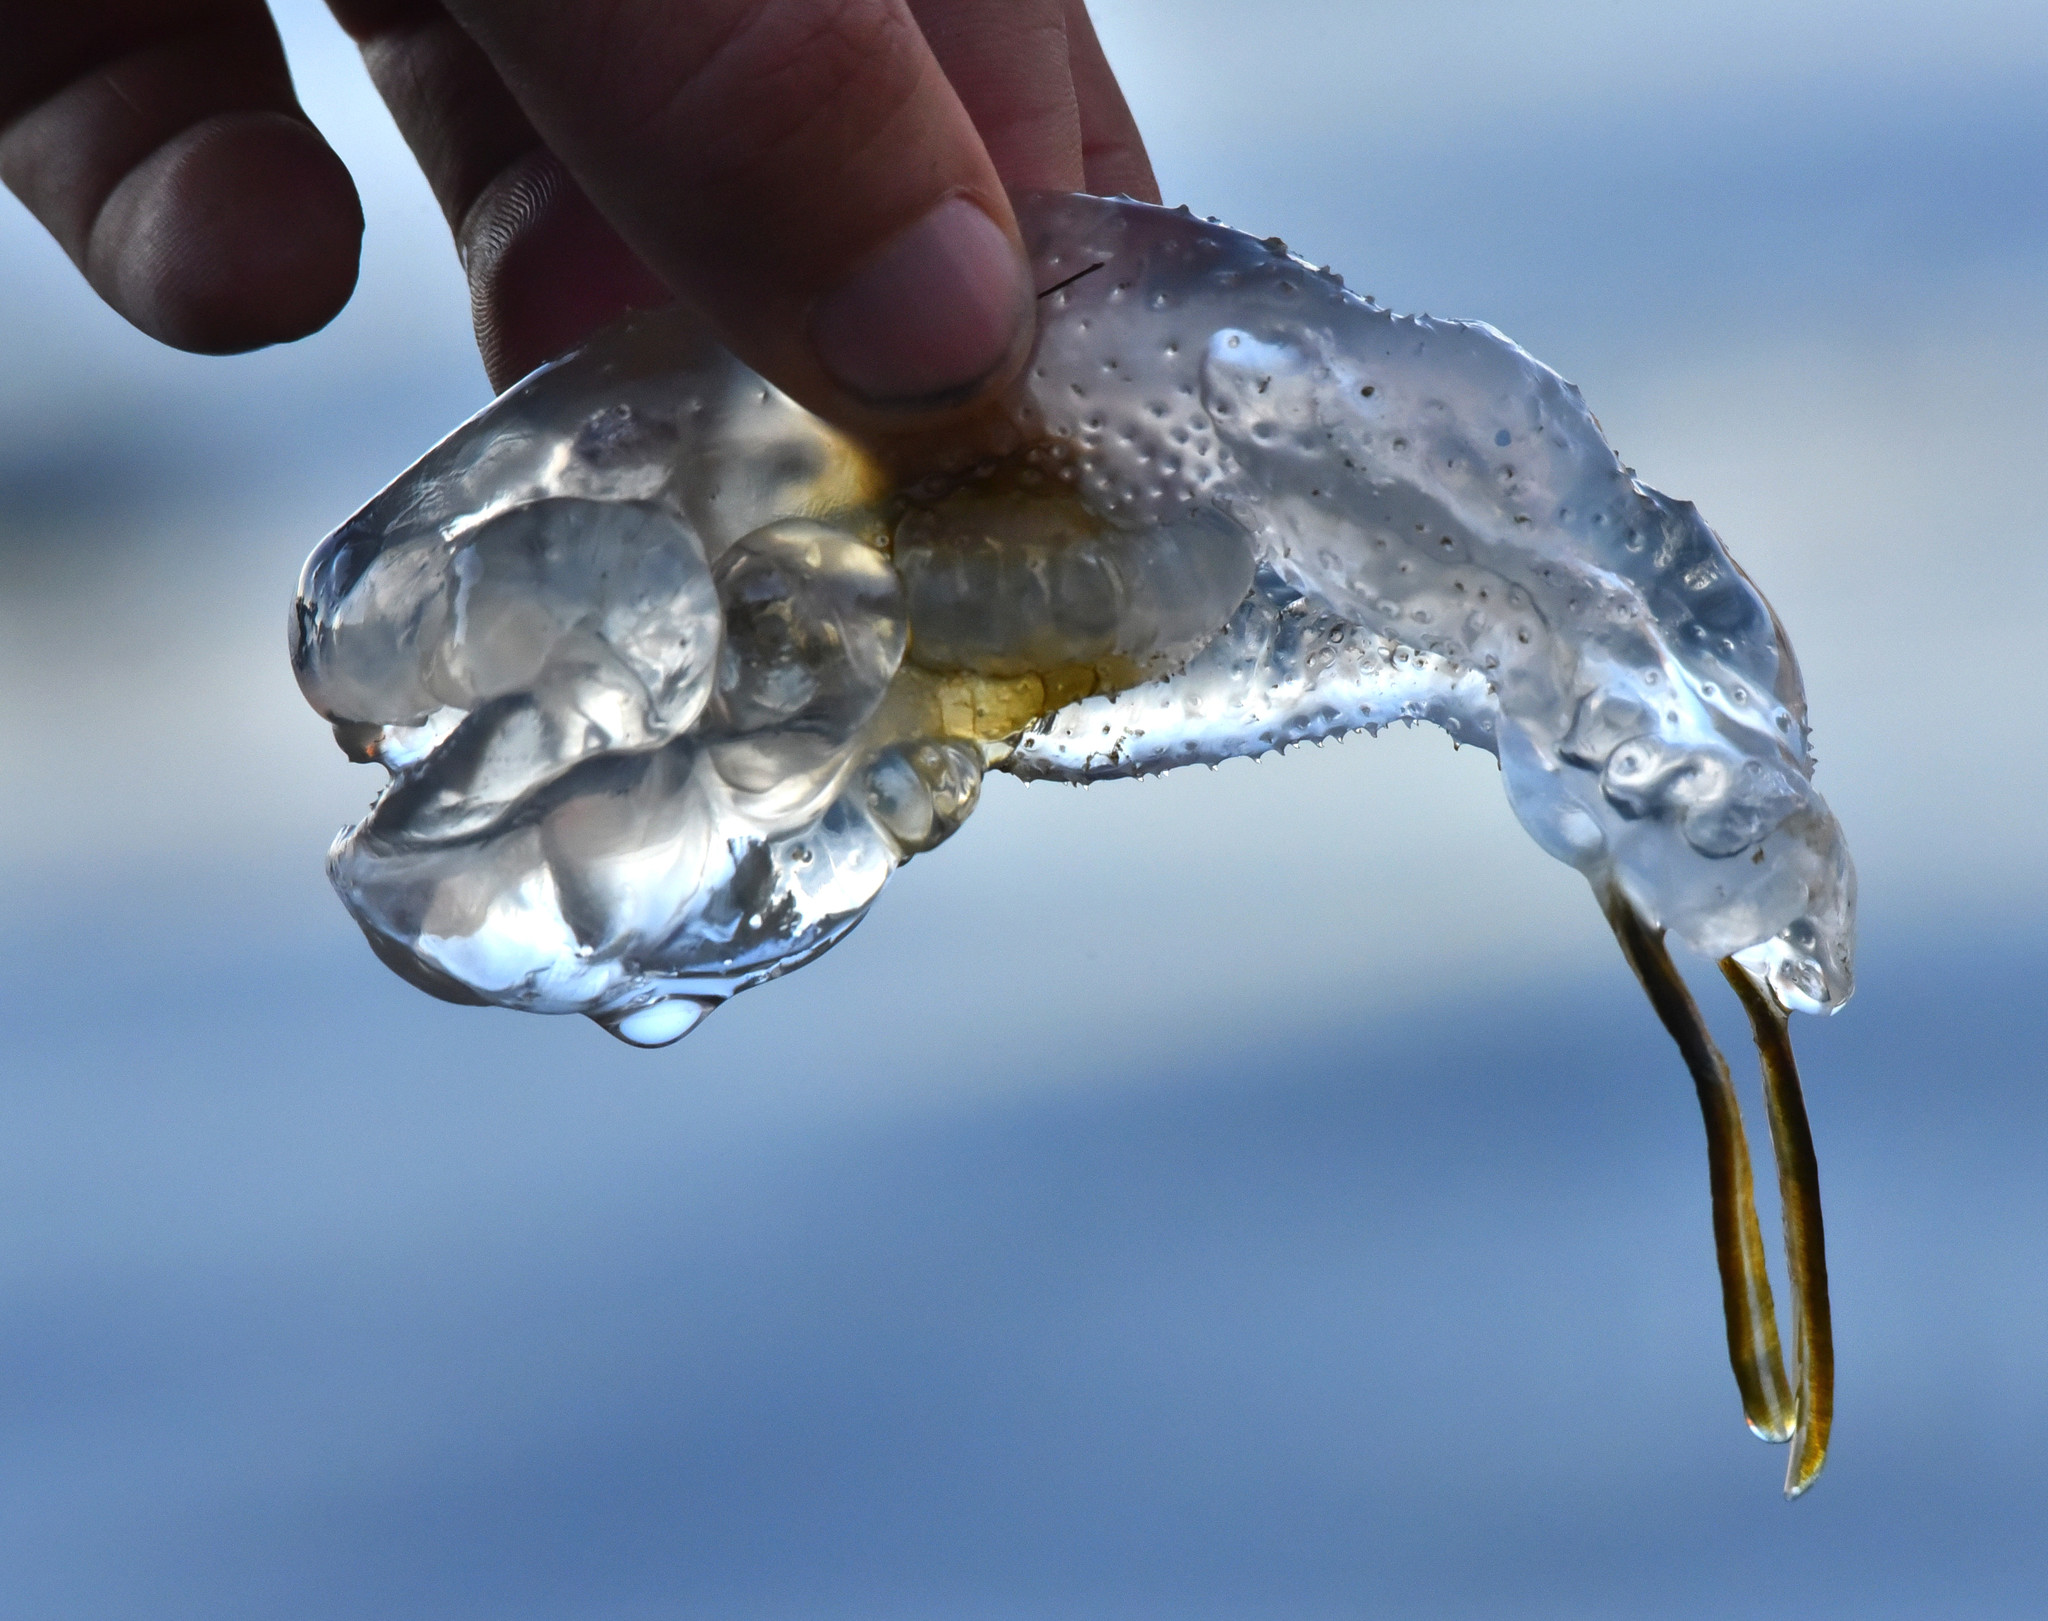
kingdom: Animalia
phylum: Chordata
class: Thaliacea
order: Salpida
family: Salpidae
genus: Thetys
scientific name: Thetys vagina
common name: Vagina salp
